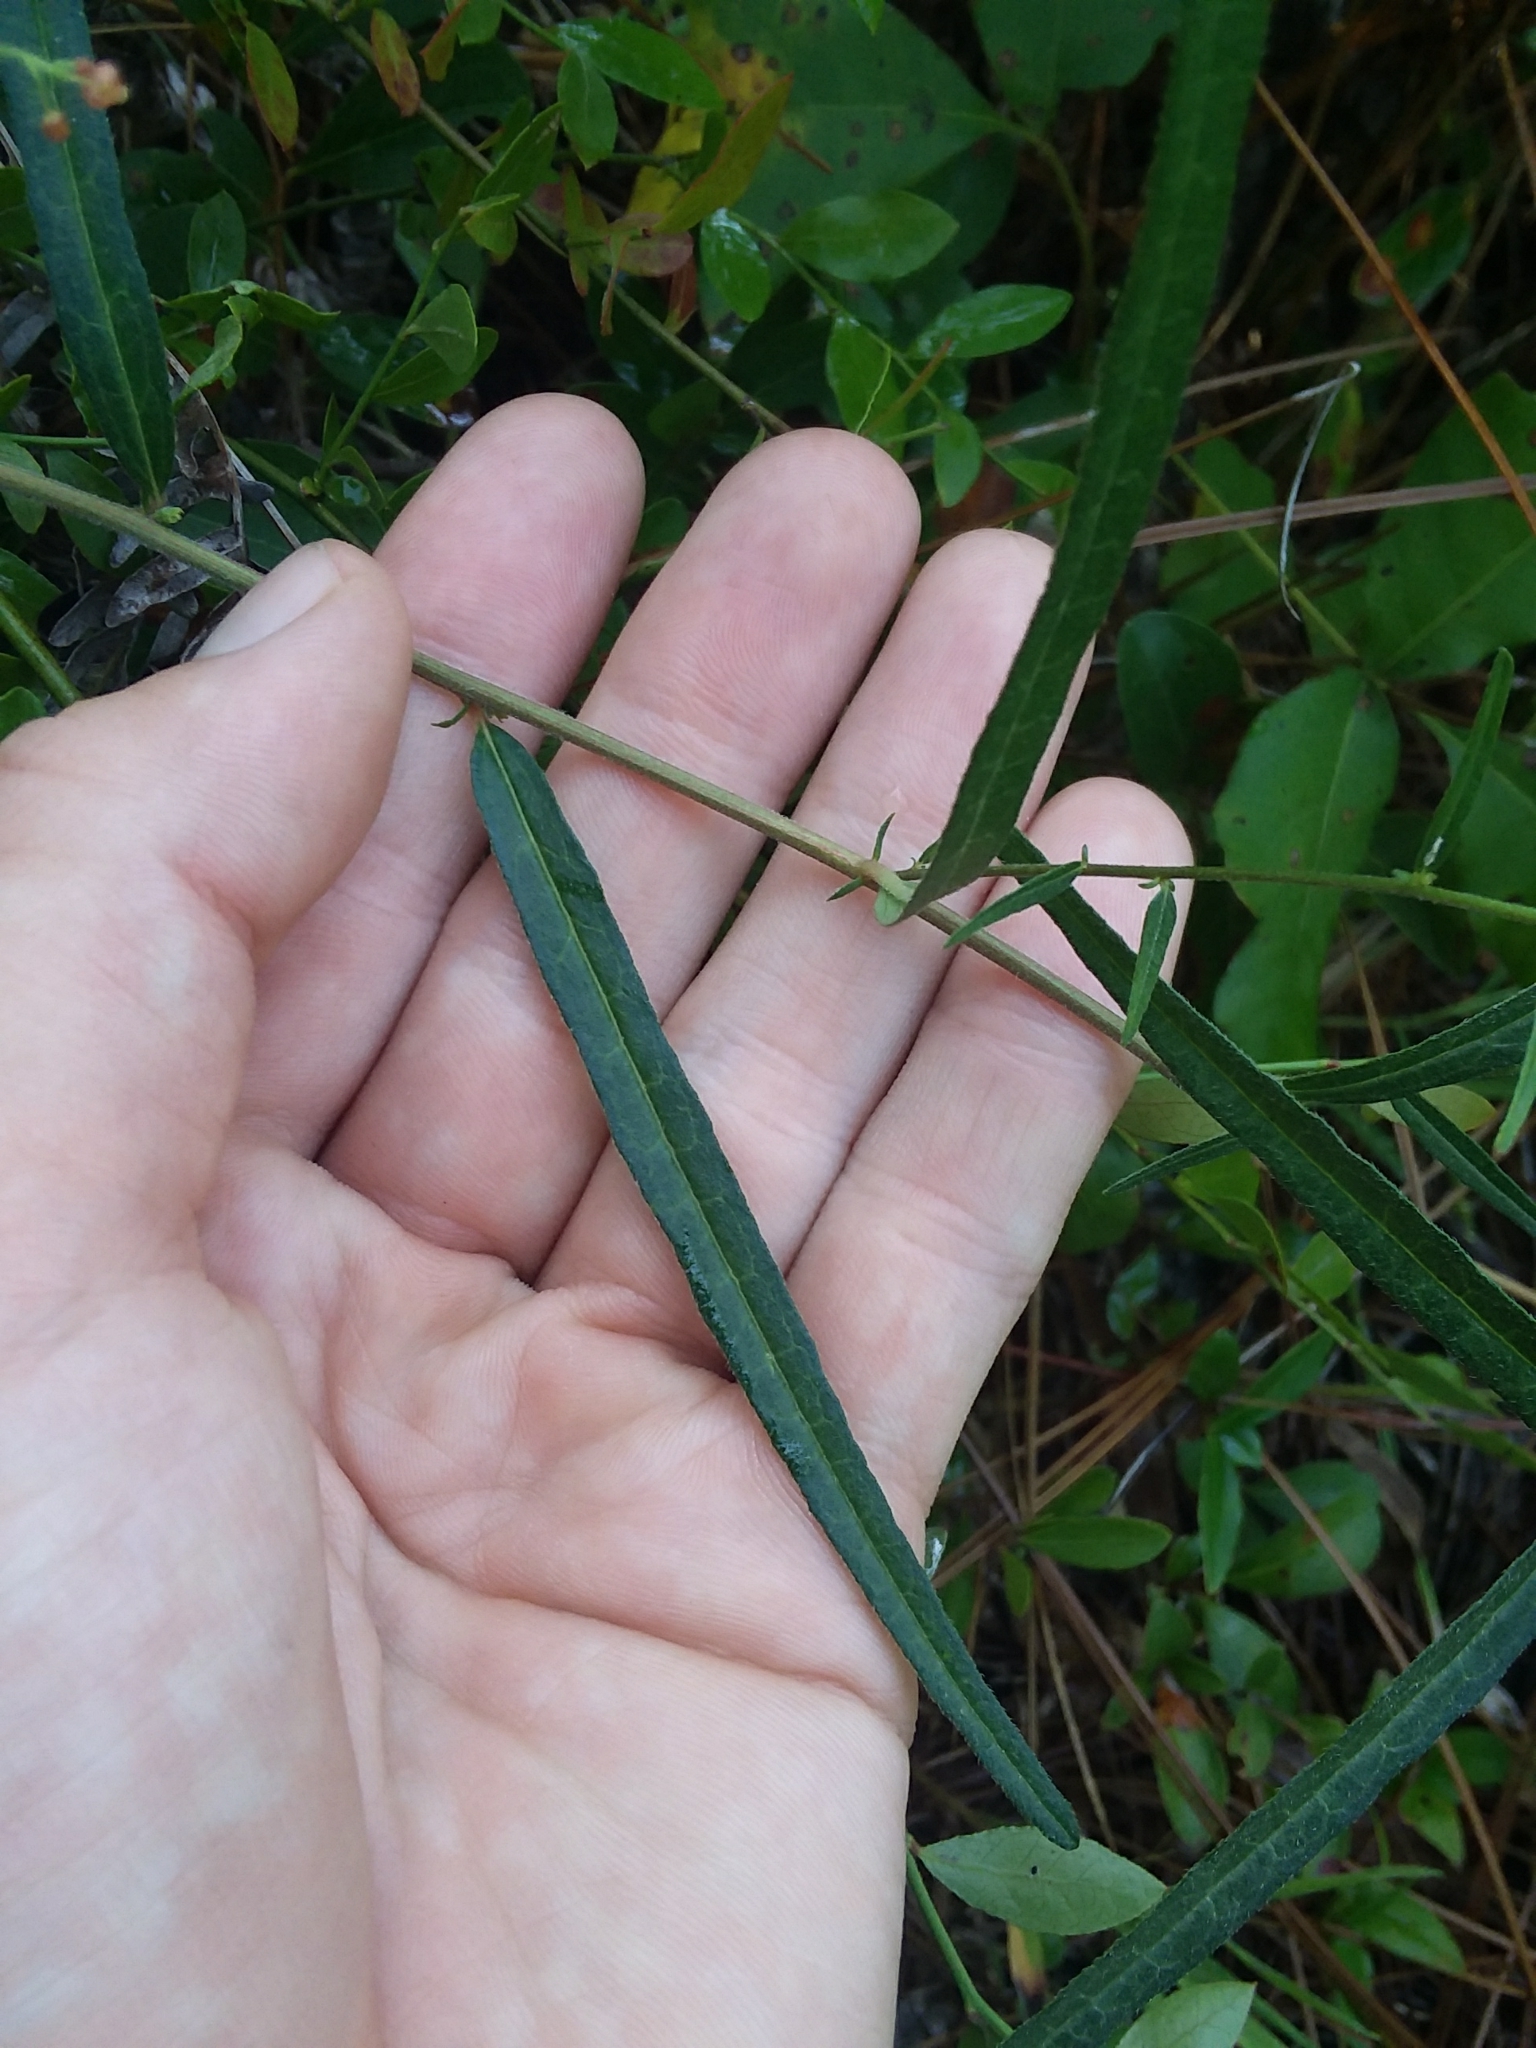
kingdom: Plantae
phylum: Tracheophyta
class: Magnoliopsida
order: Malpighiales
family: Euphorbiaceae
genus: Tragia
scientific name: Tragia urens
